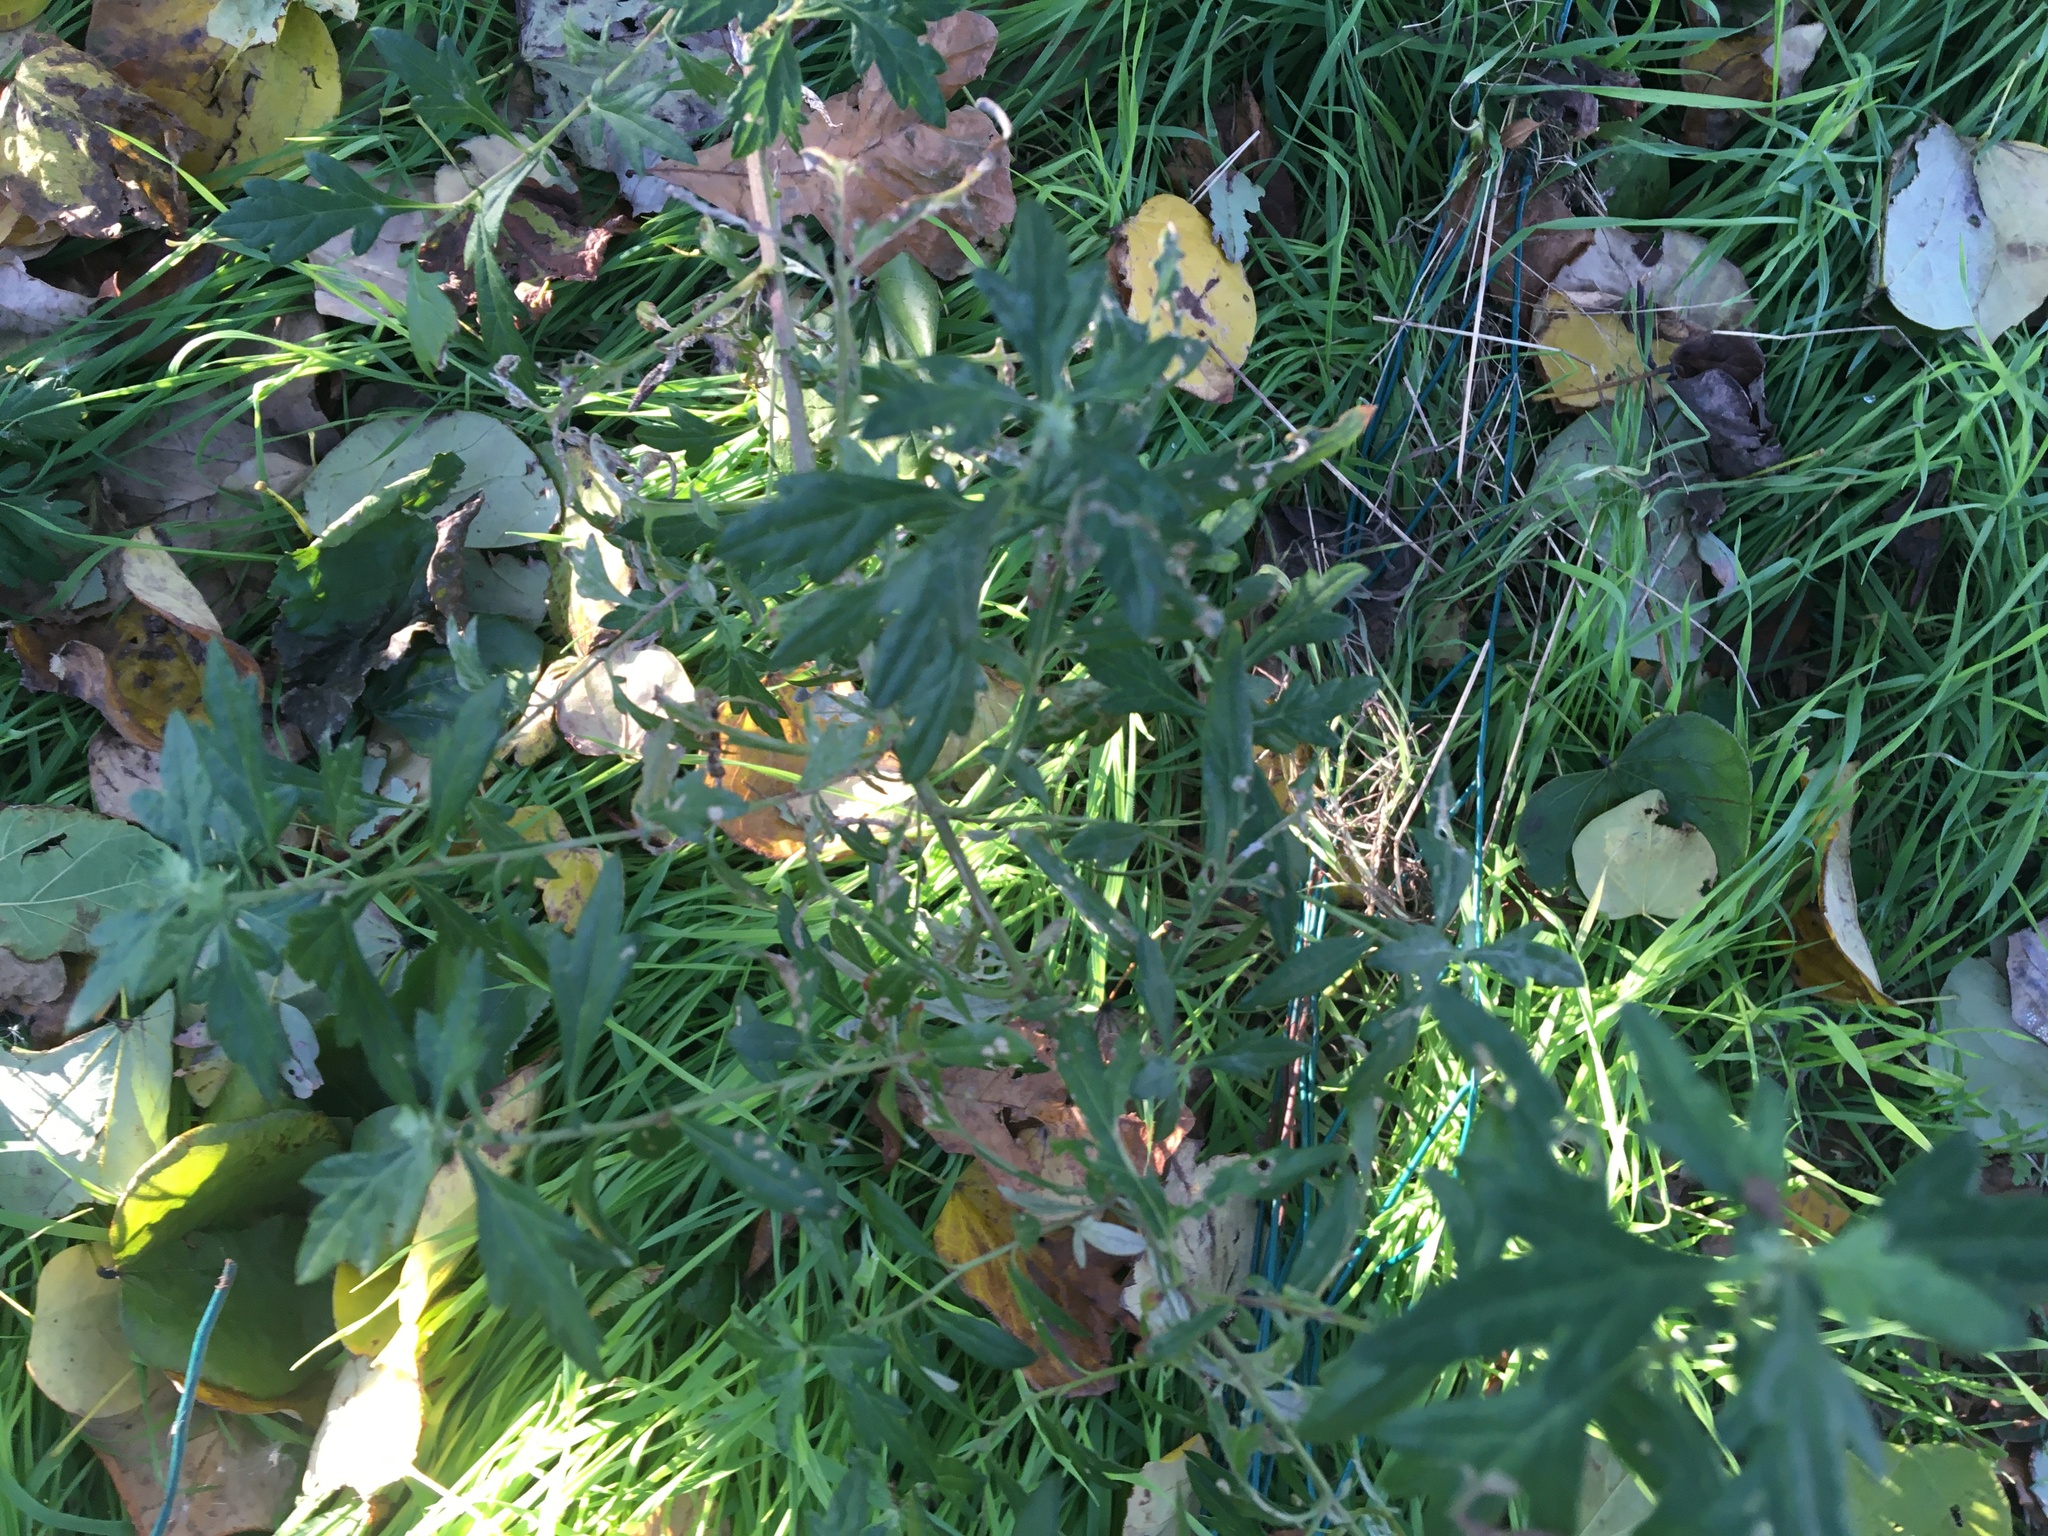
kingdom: Plantae
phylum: Tracheophyta
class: Magnoliopsida
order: Asterales
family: Asteraceae
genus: Artemisia
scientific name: Artemisia vulgaris
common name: Mugwort
